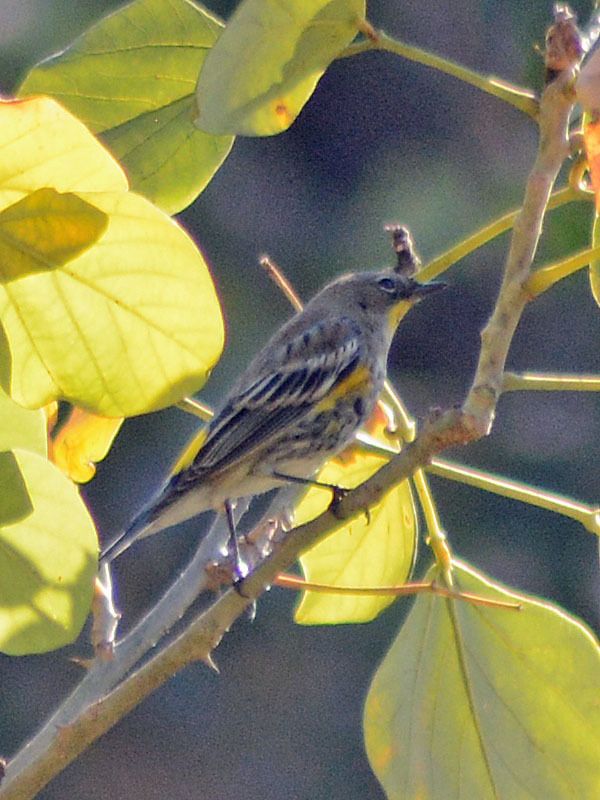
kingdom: Animalia
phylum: Chordata
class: Aves
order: Passeriformes
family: Parulidae
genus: Setophaga
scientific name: Setophaga coronata
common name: Myrtle warbler
